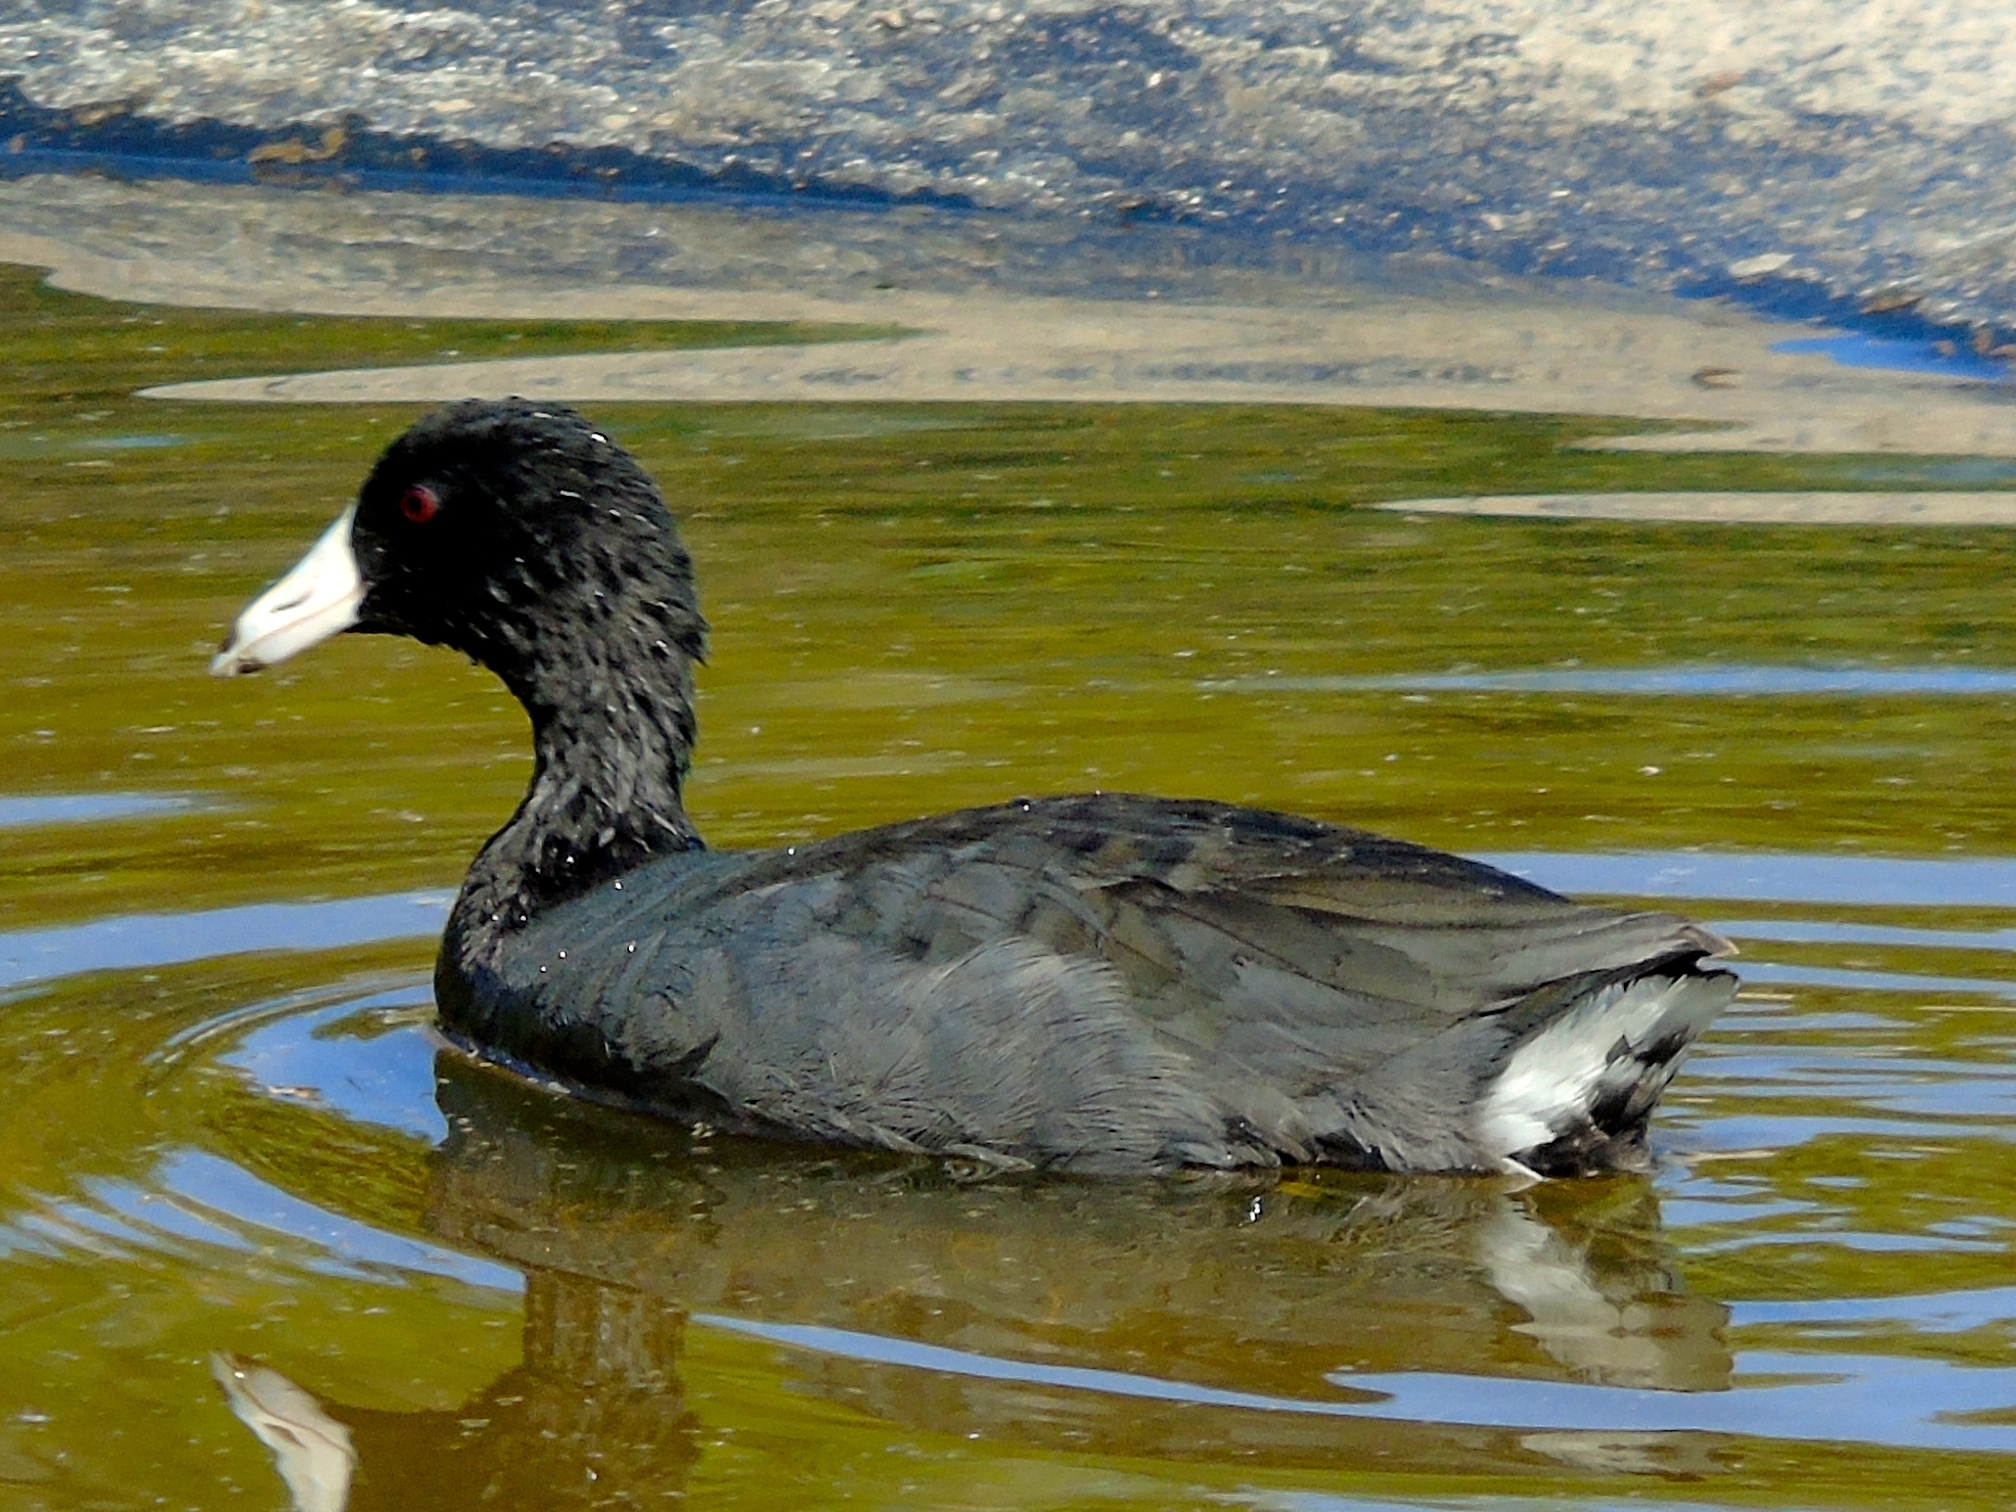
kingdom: Animalia
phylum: Chordata
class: Aves
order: Gruiformes
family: Rallidae
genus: Fulica
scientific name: Fulica americana
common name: American coot
